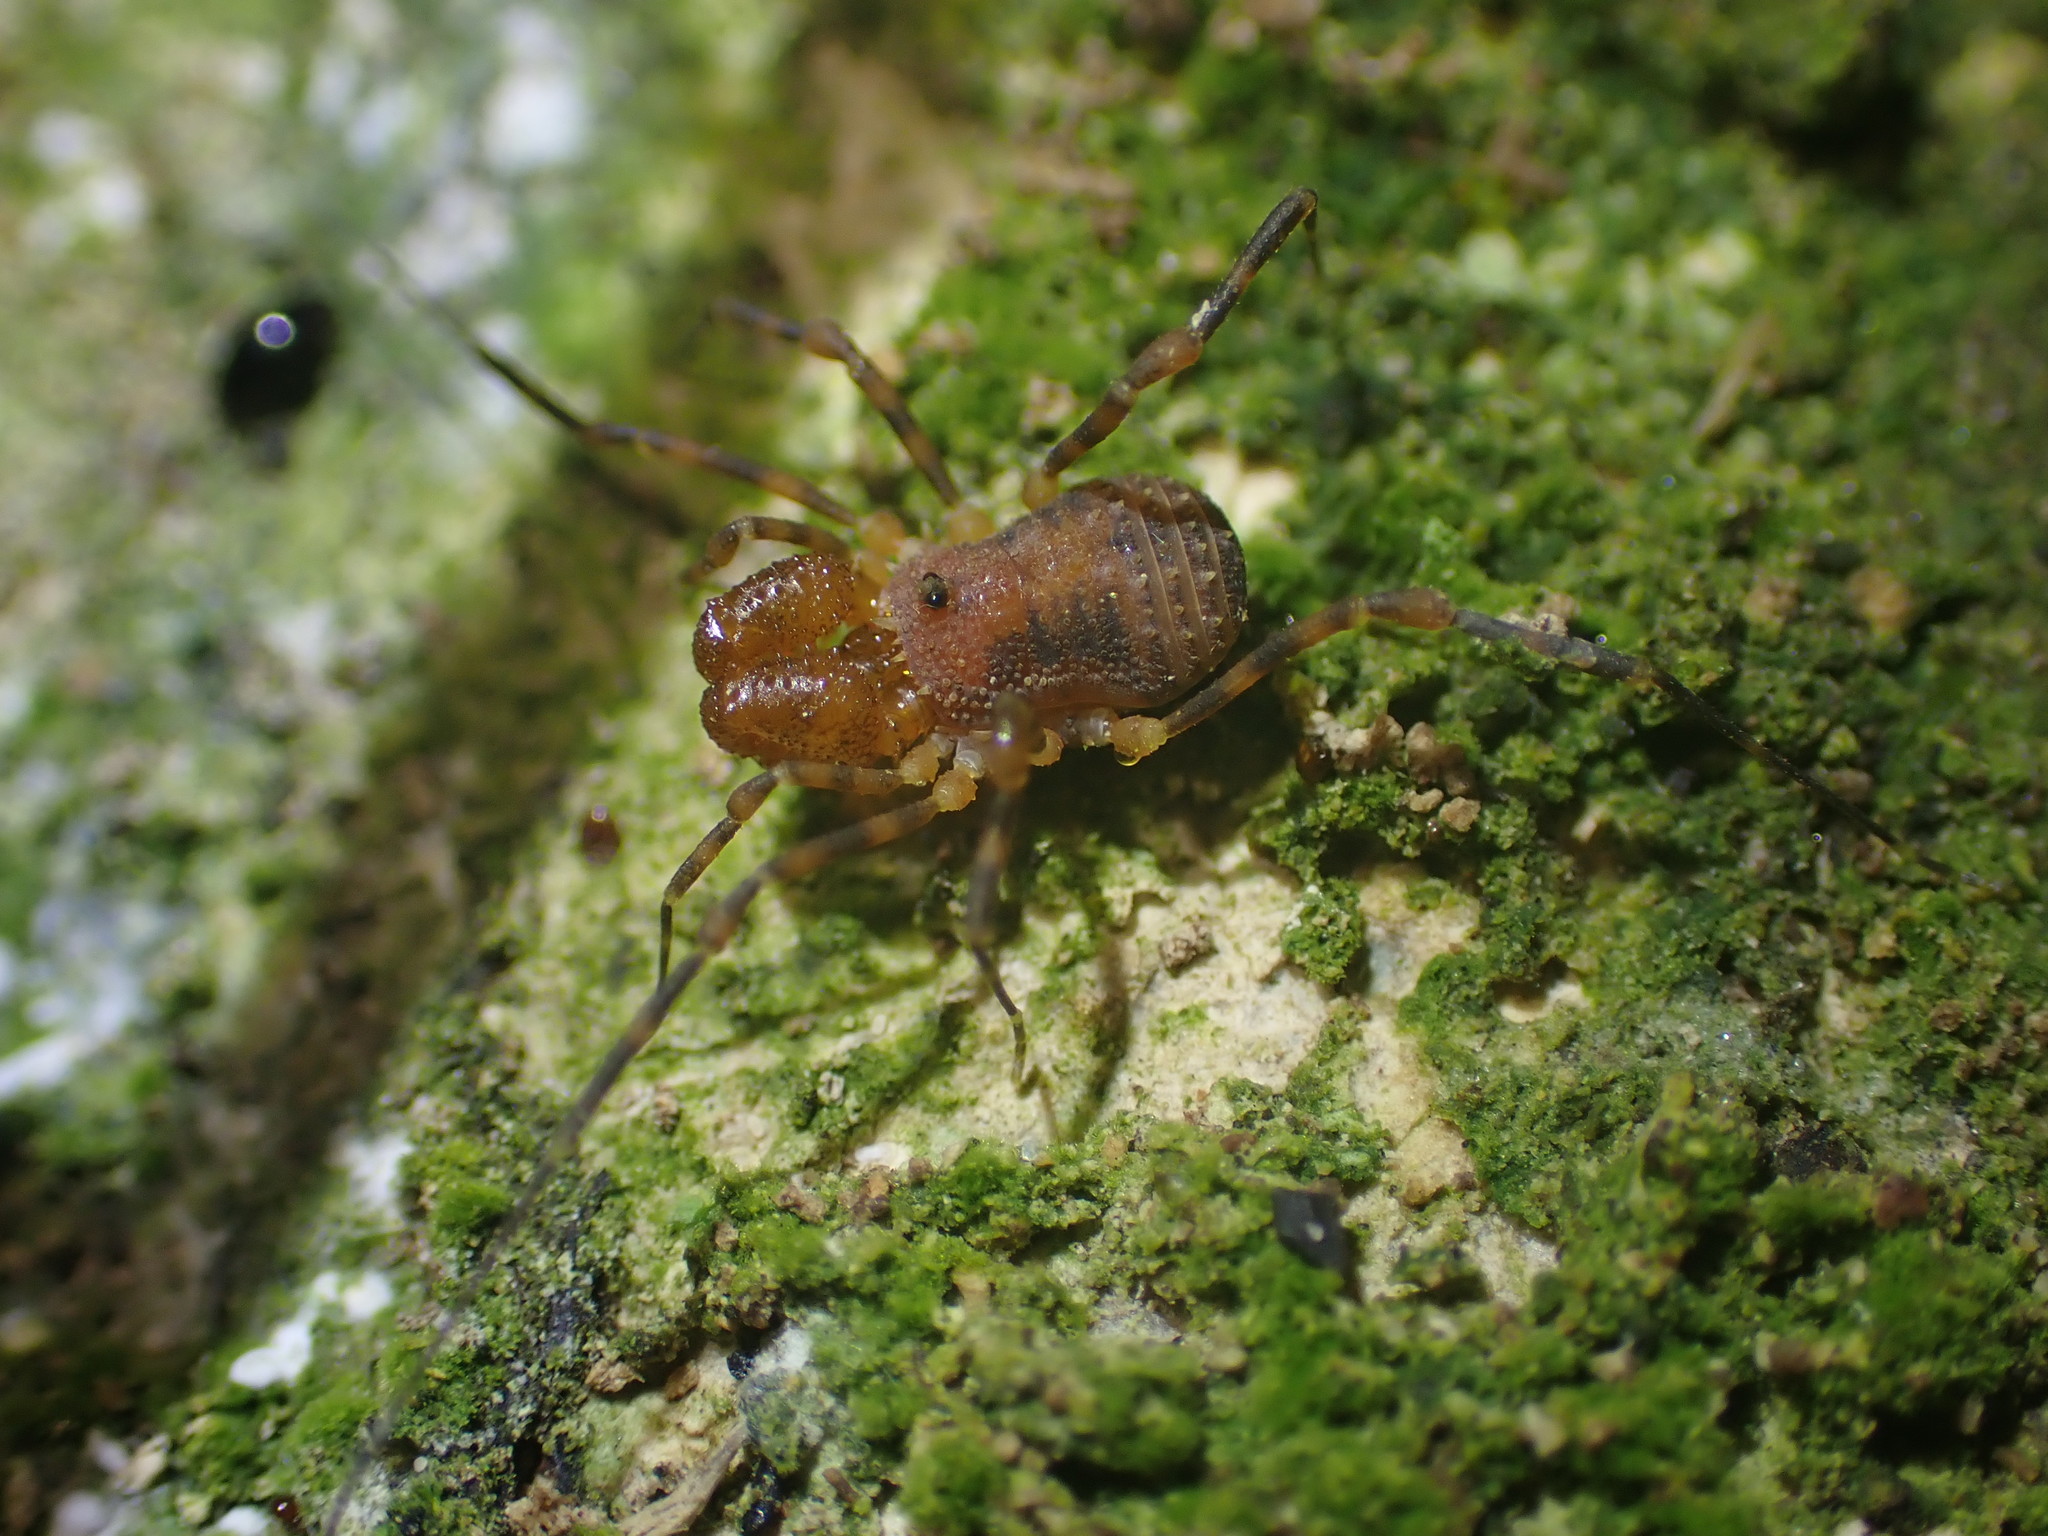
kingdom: Animalia
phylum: Arthropoda
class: Arachnida
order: Opiliones
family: Triaenonychidae
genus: Prasma
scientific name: Prasma tuberculata
